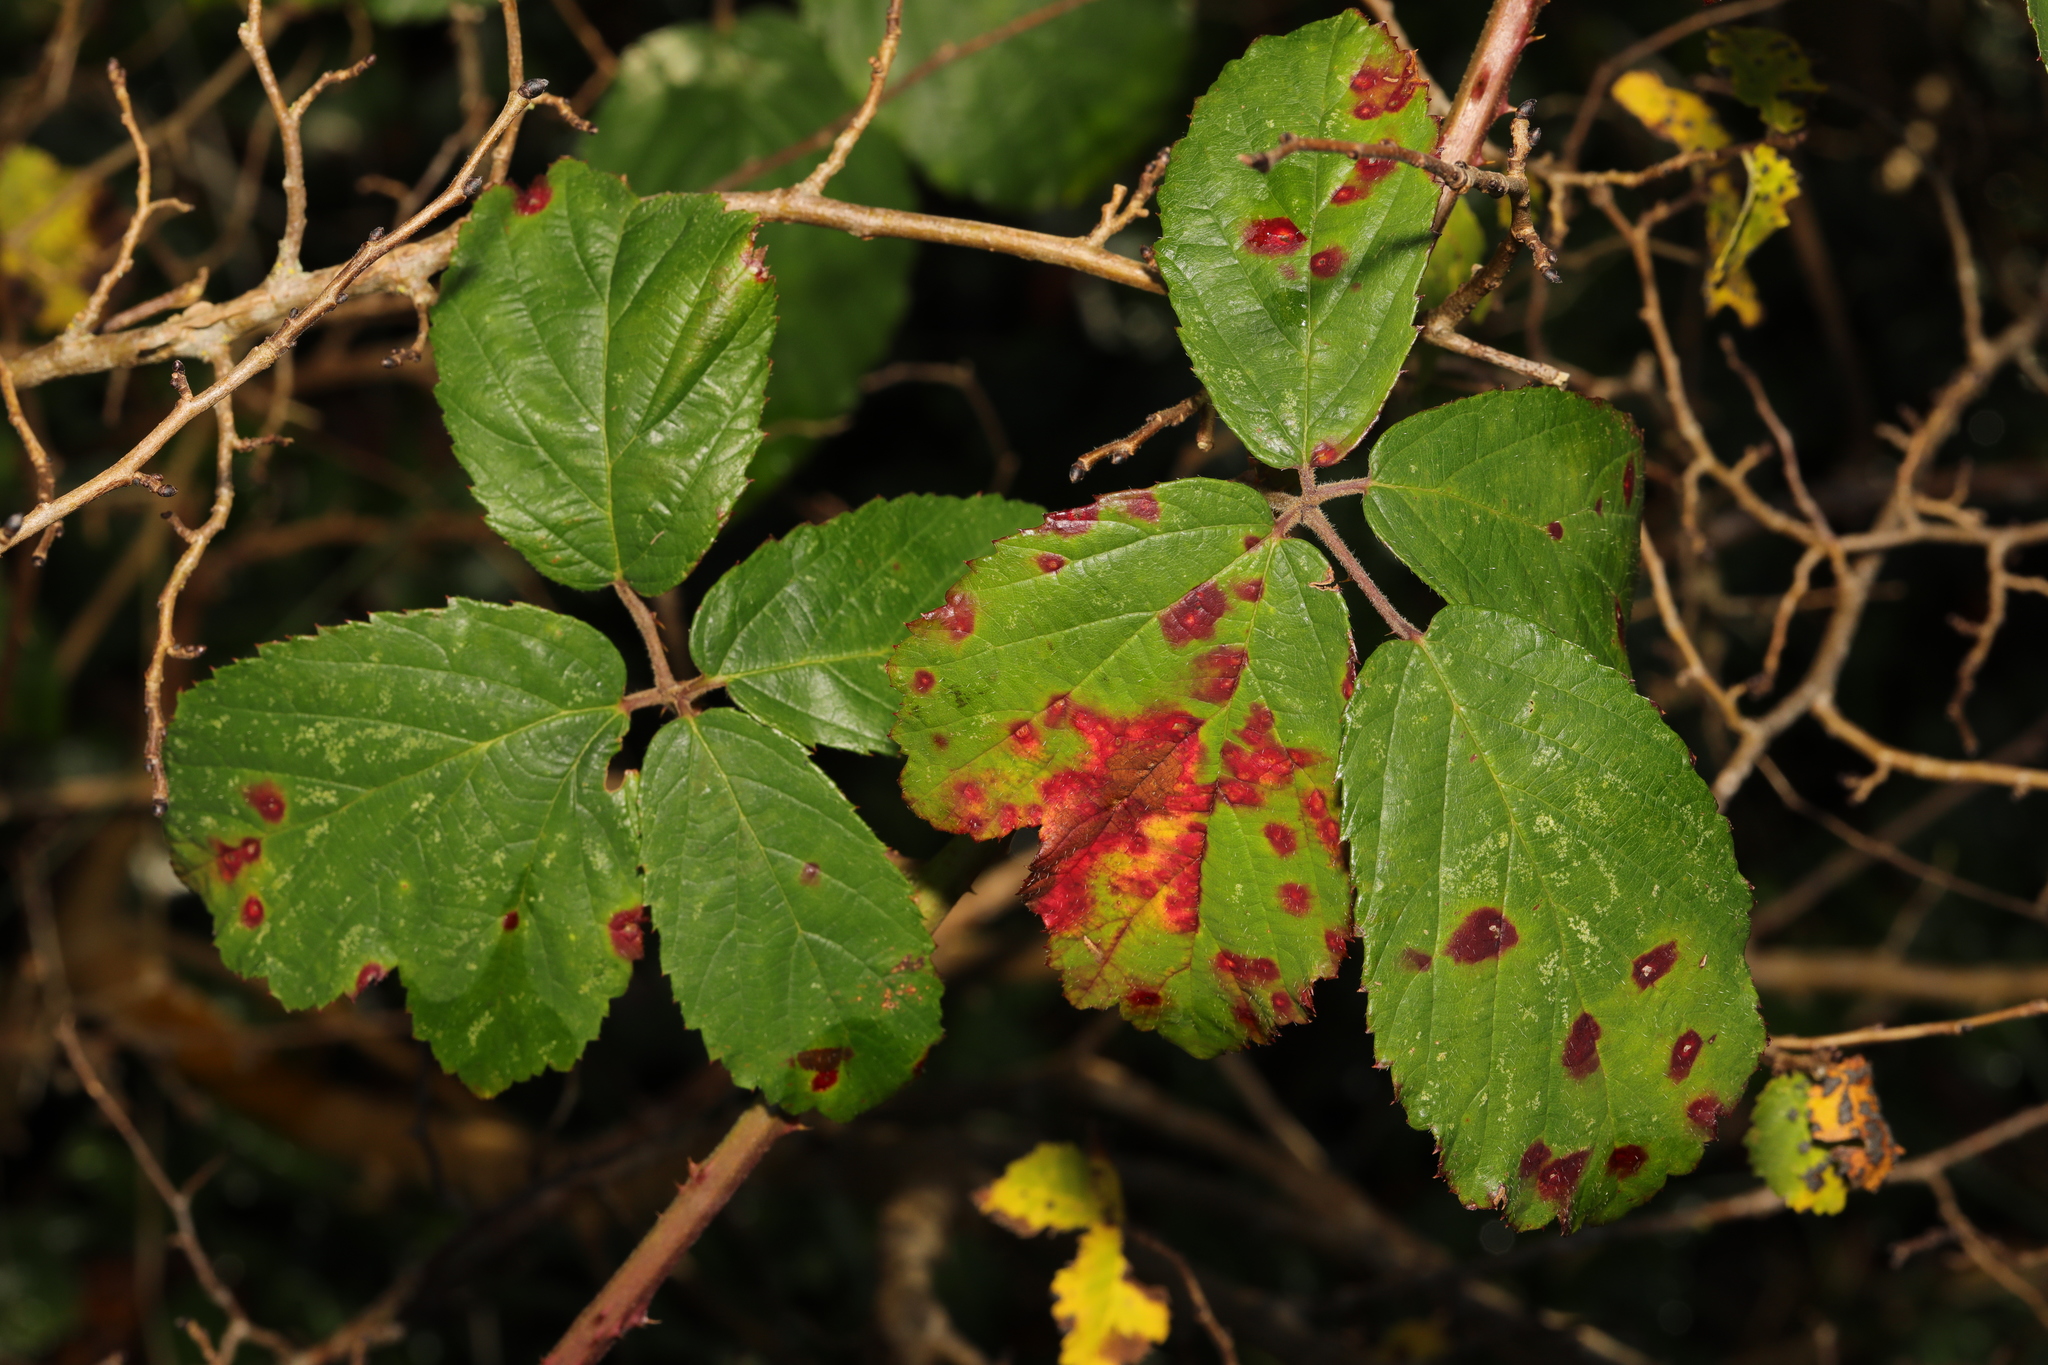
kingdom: Fungi
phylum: Basidiomycota
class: Pucciniomycetes
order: Pucciniales
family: Phragmidiaceae
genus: Phragmidium
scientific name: Phragmidium violaceum
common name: Violet bramble rust
